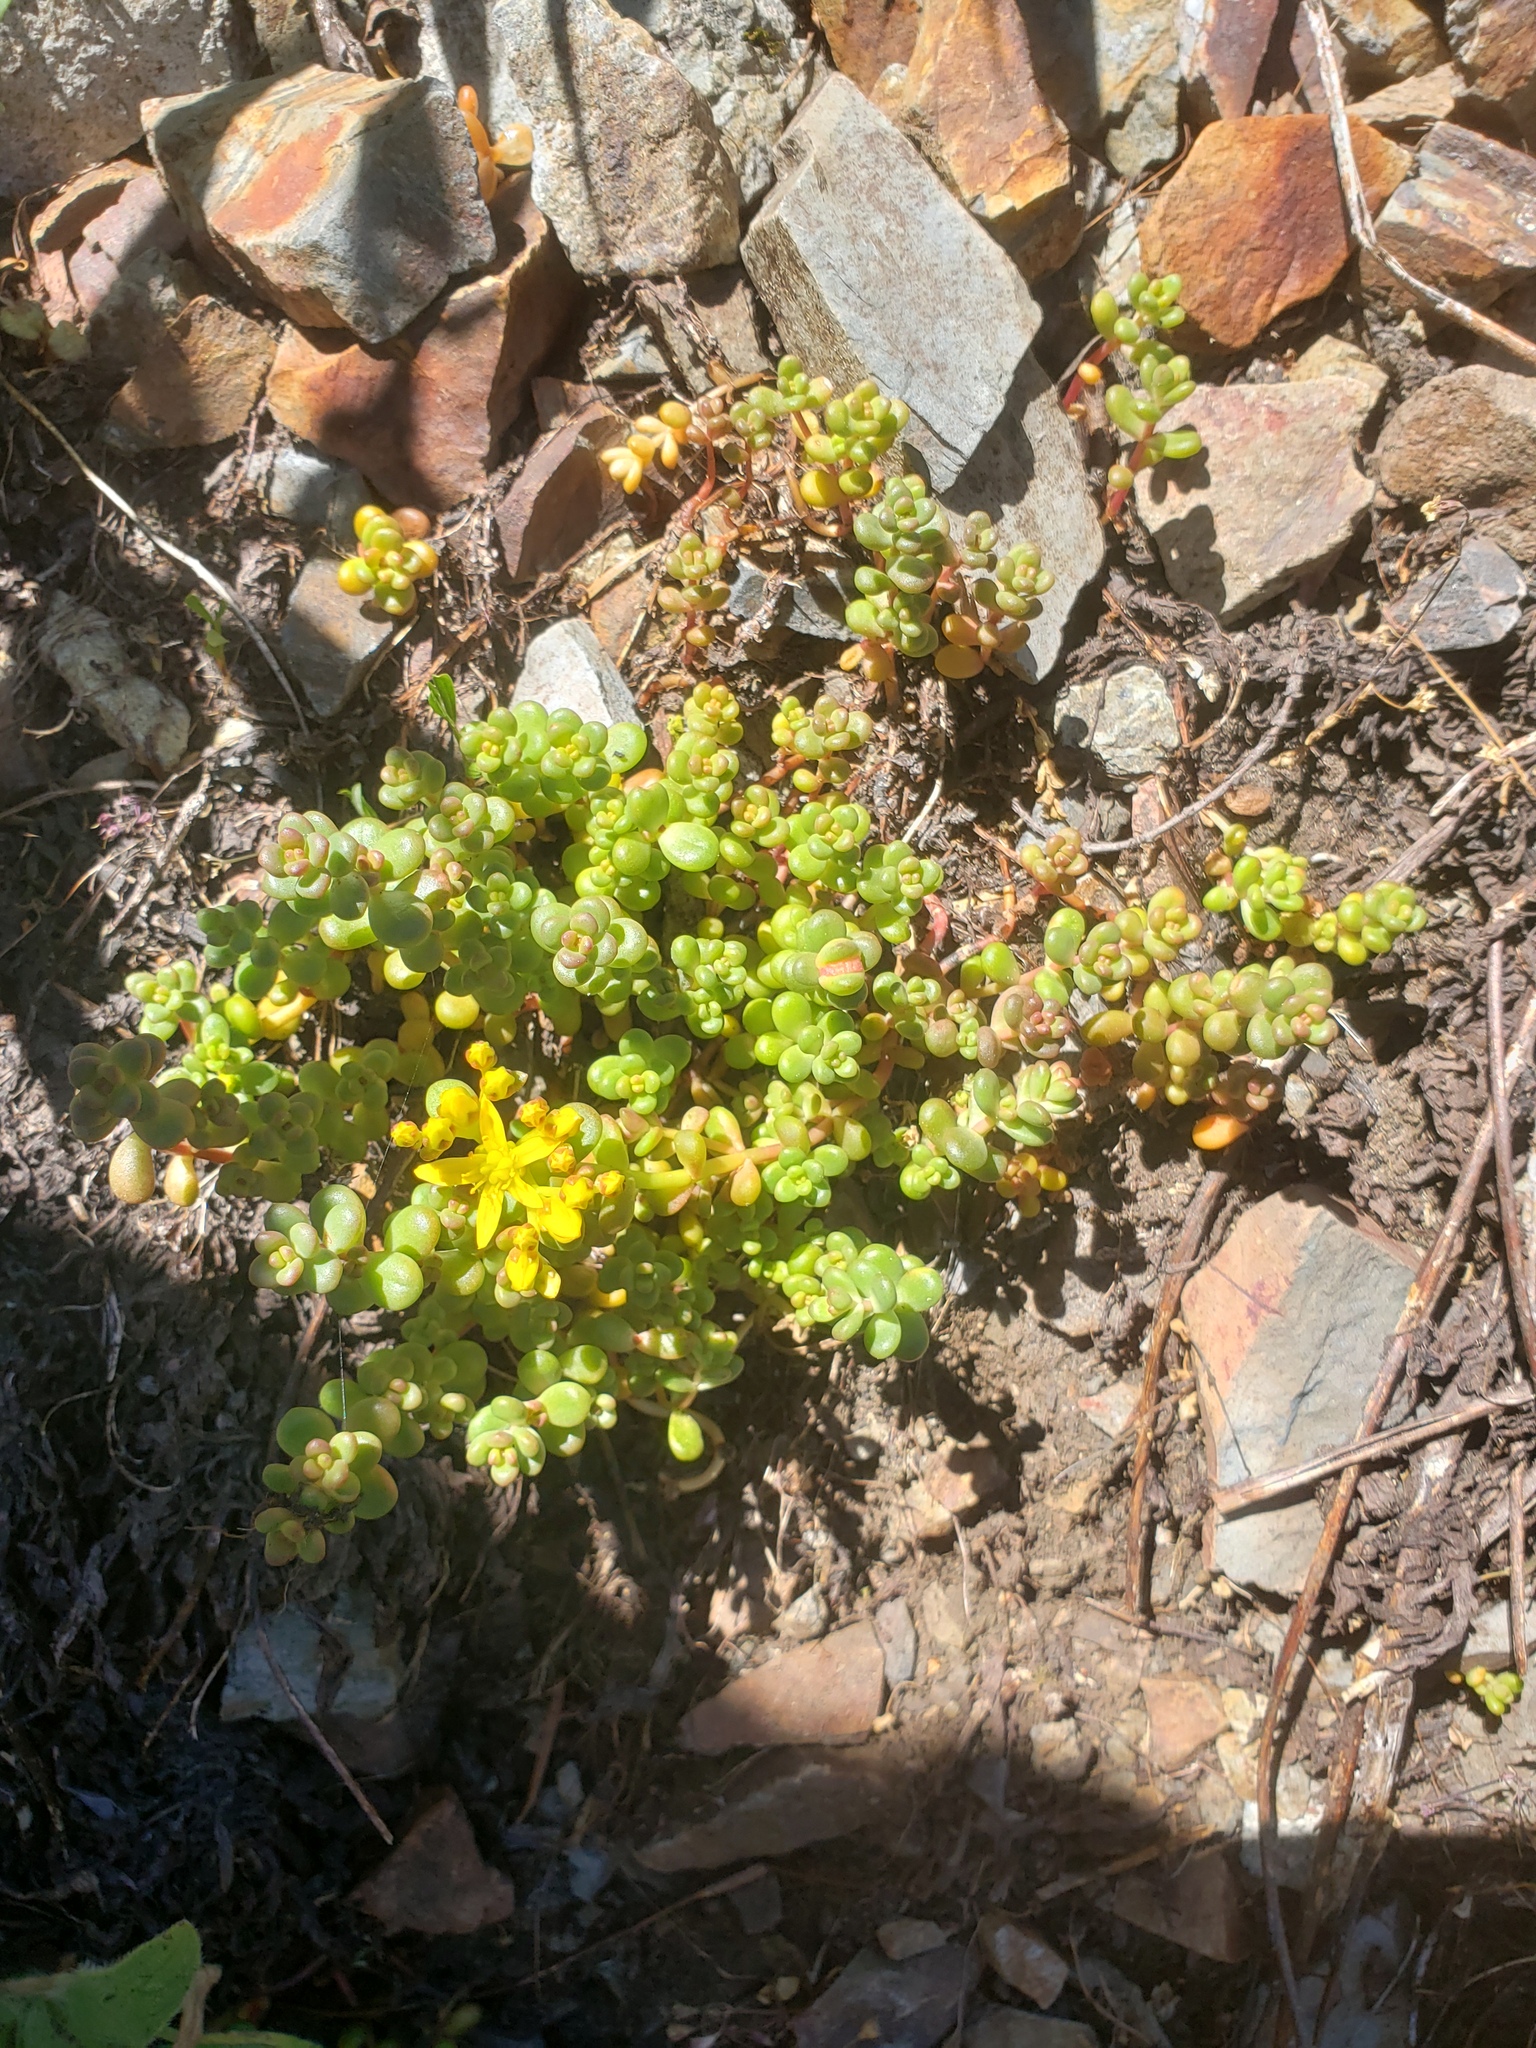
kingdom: Plantae
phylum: Tracheophyta
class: Magnoliopsida
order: Saxifragales
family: Crassulaceae
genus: Sedum
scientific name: Sedum divergens
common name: Cascade stonecrop
